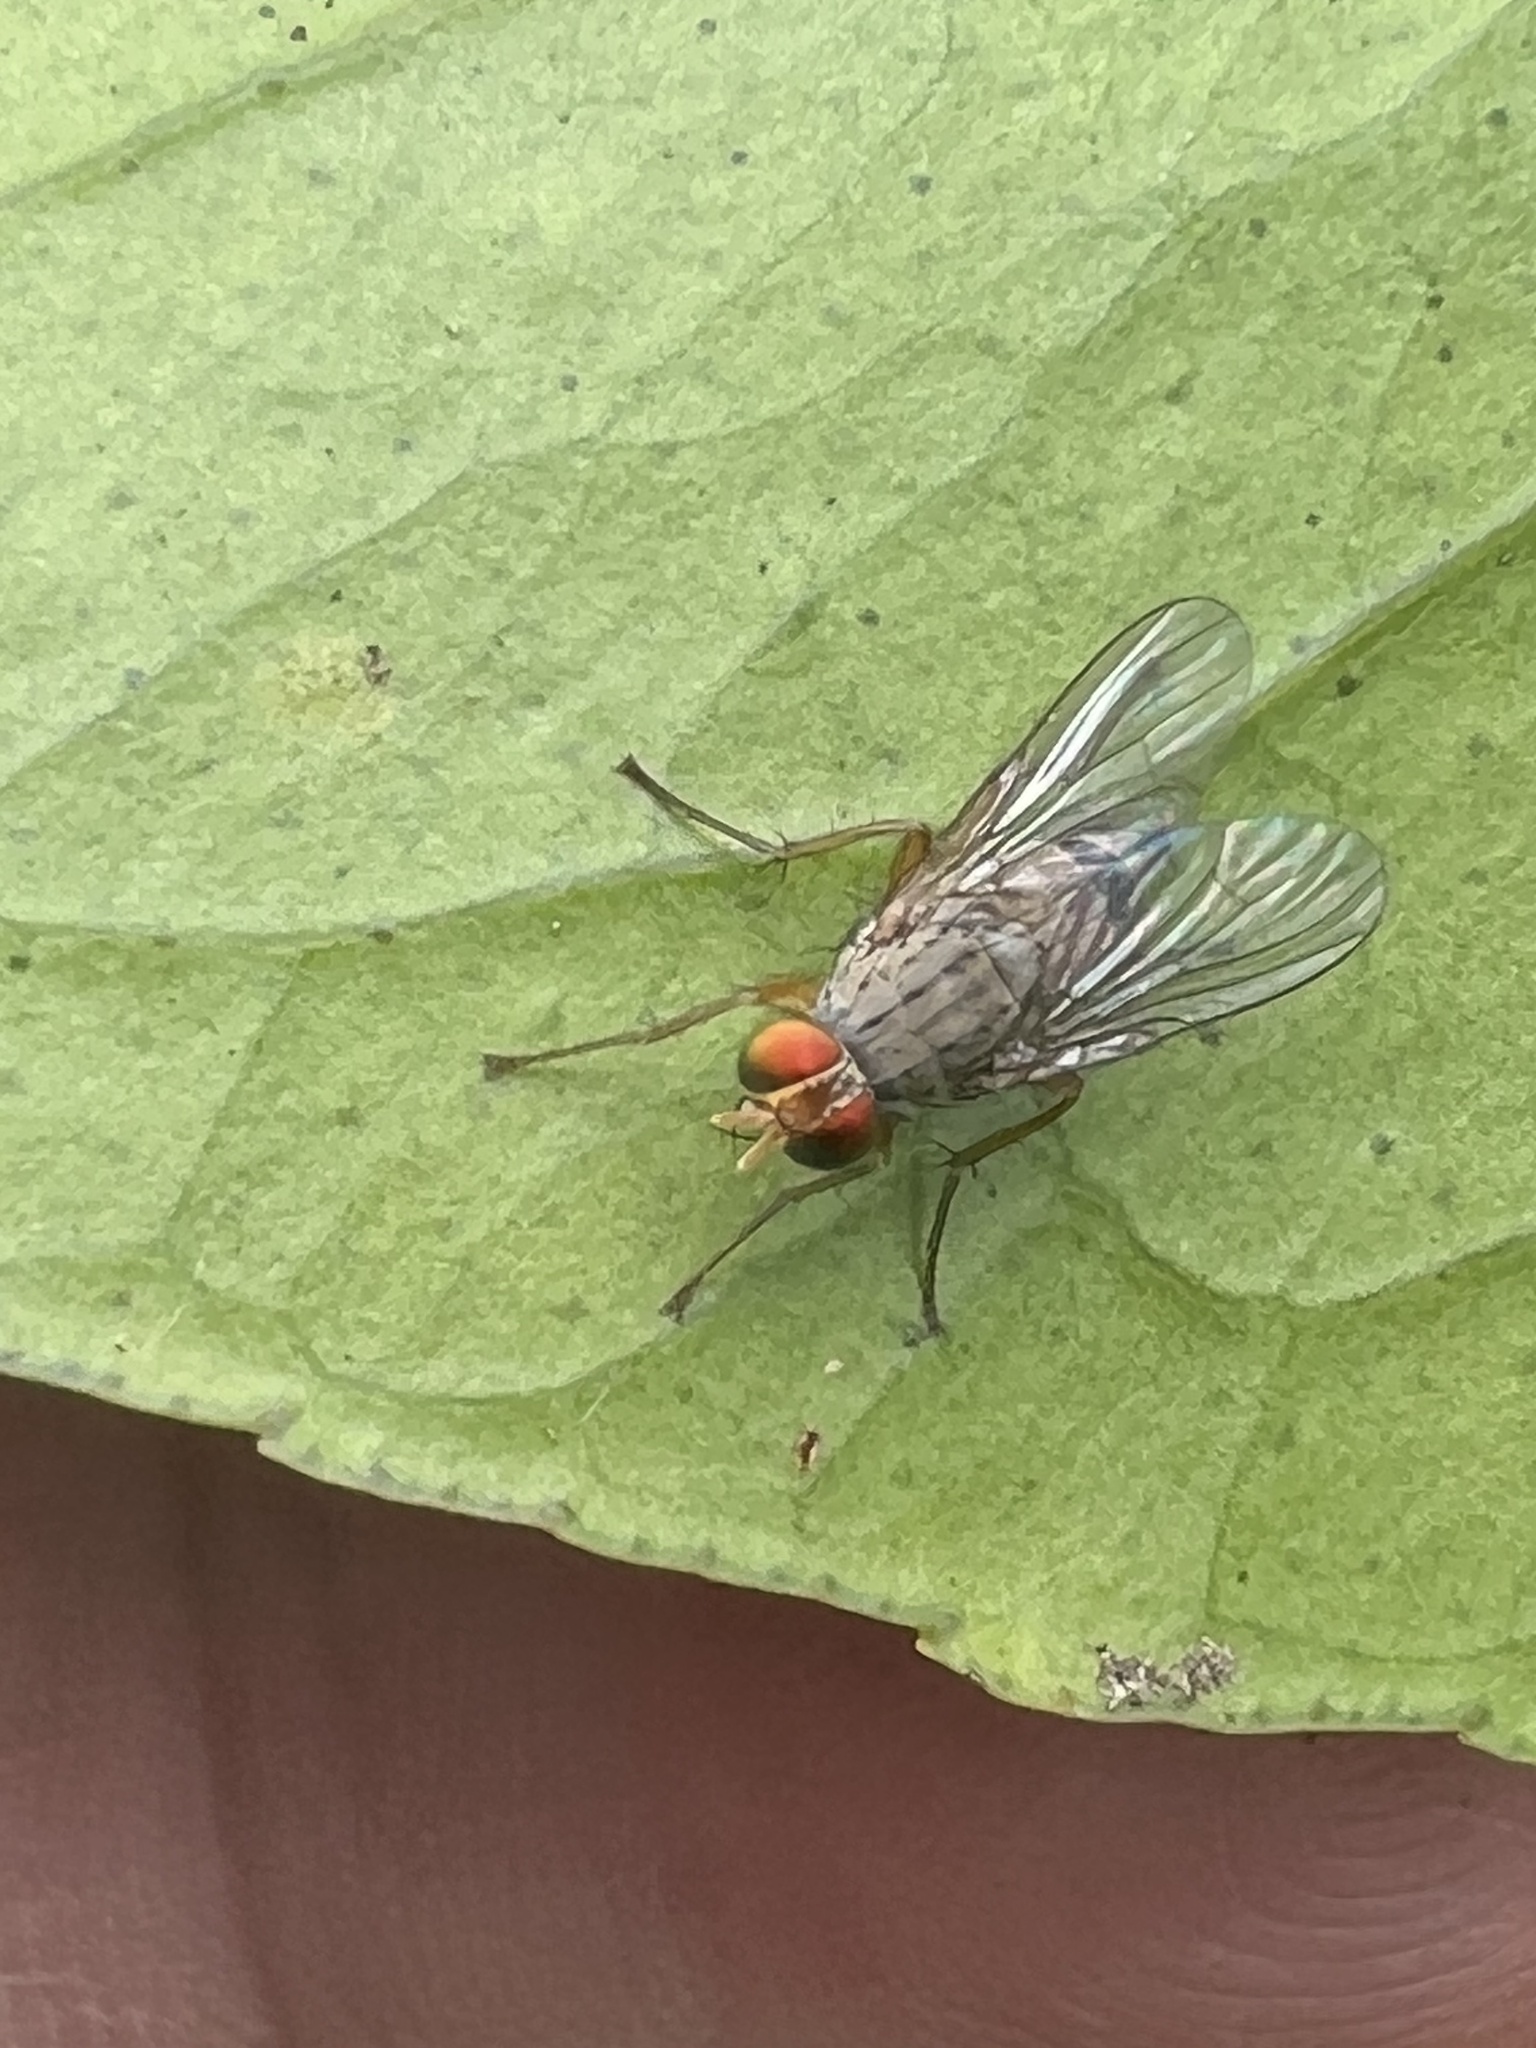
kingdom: Animalia
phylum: Arthropoda
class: Insecta
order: Diptera
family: Muscidae
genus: Pygophora
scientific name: Pygophora apicalis
